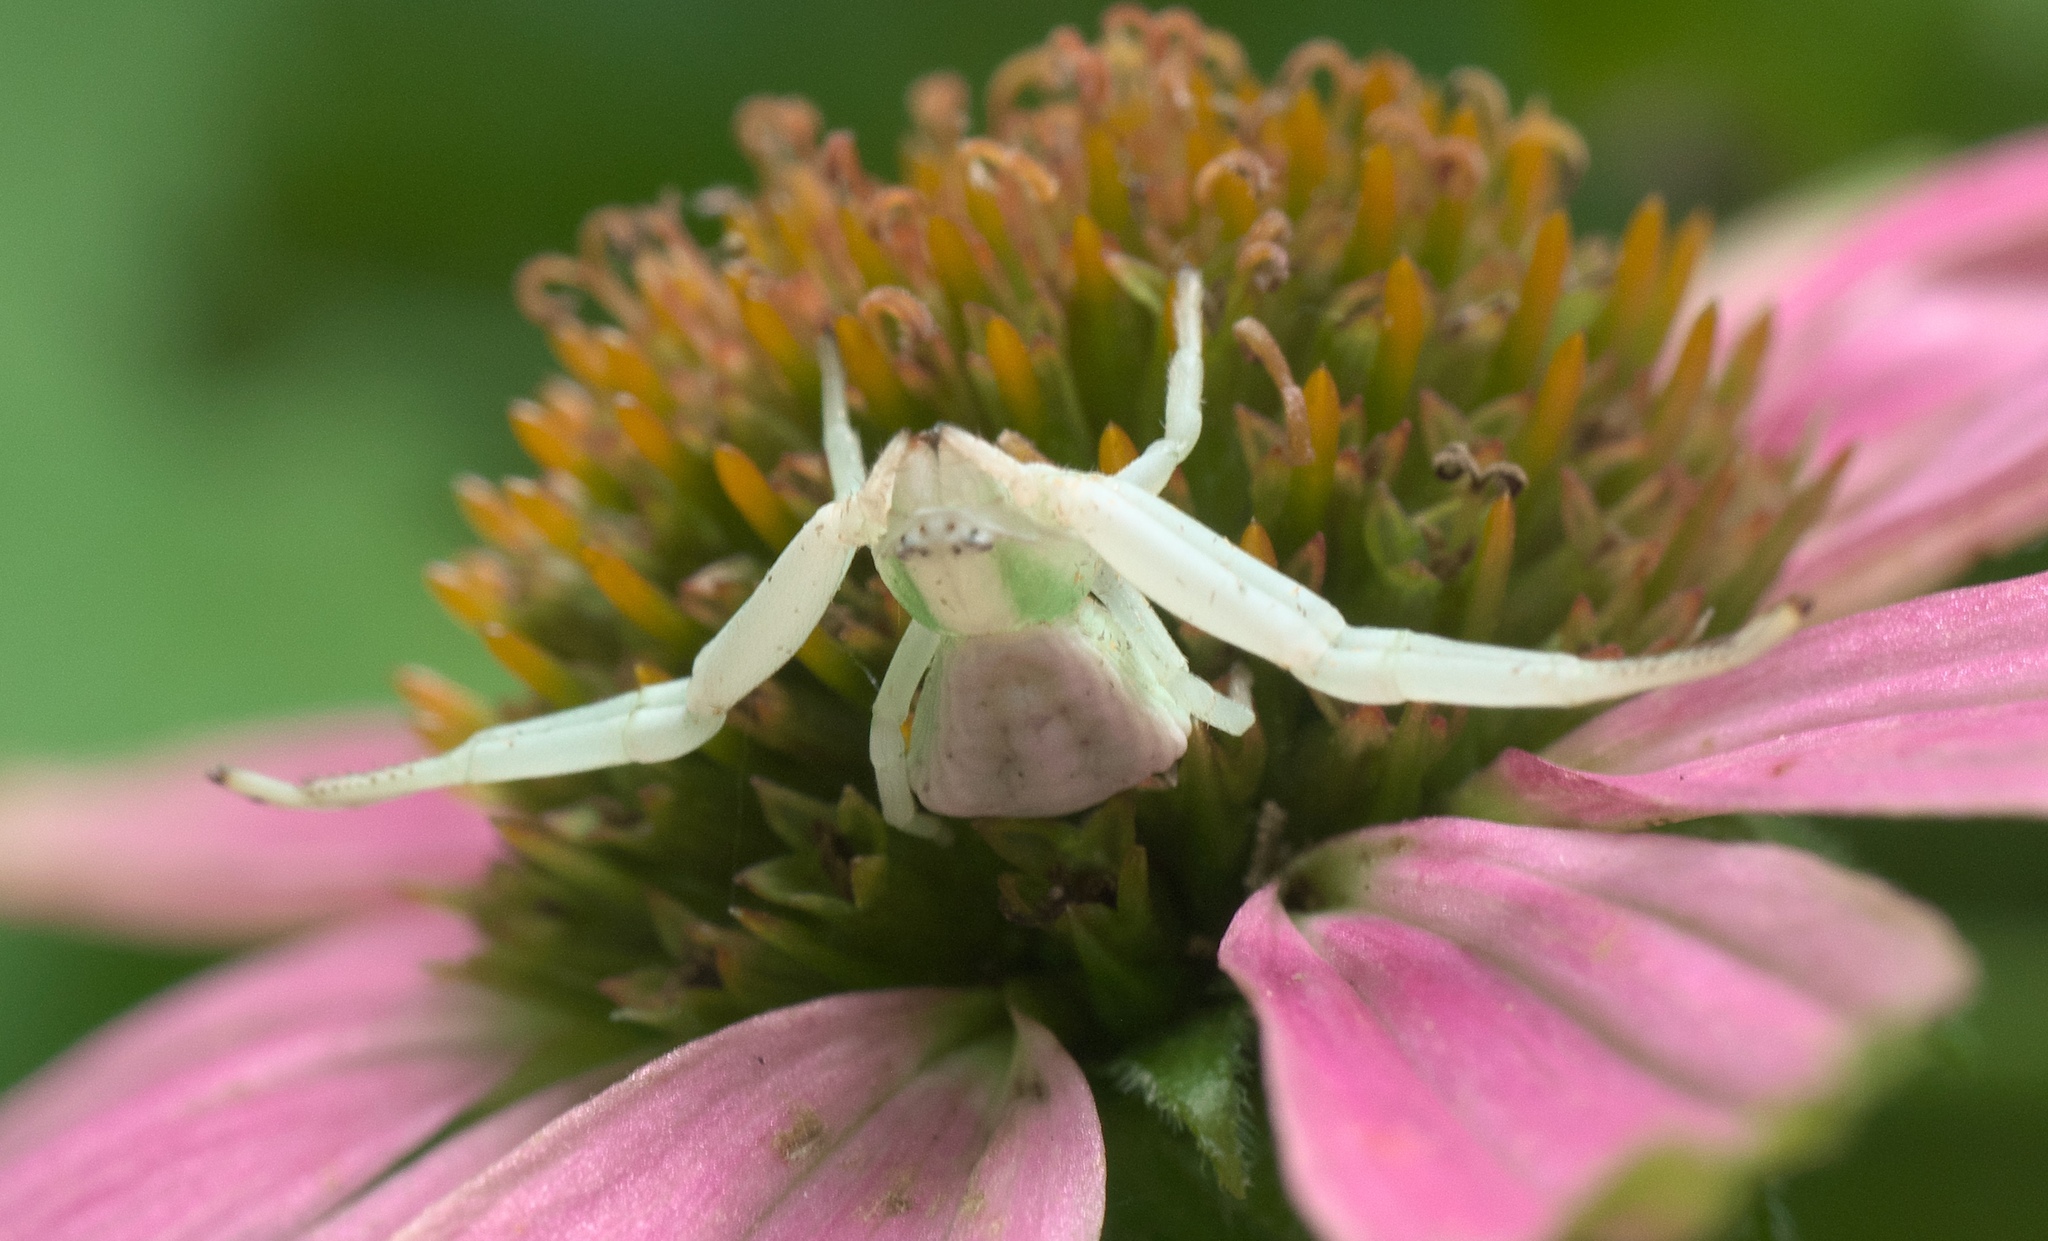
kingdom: Animalia
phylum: Arthropoda
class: Arachnida
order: Araneae
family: Thomisidae
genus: Misumenoides
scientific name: Misumenoides formosipes
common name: White-banded crab spider
